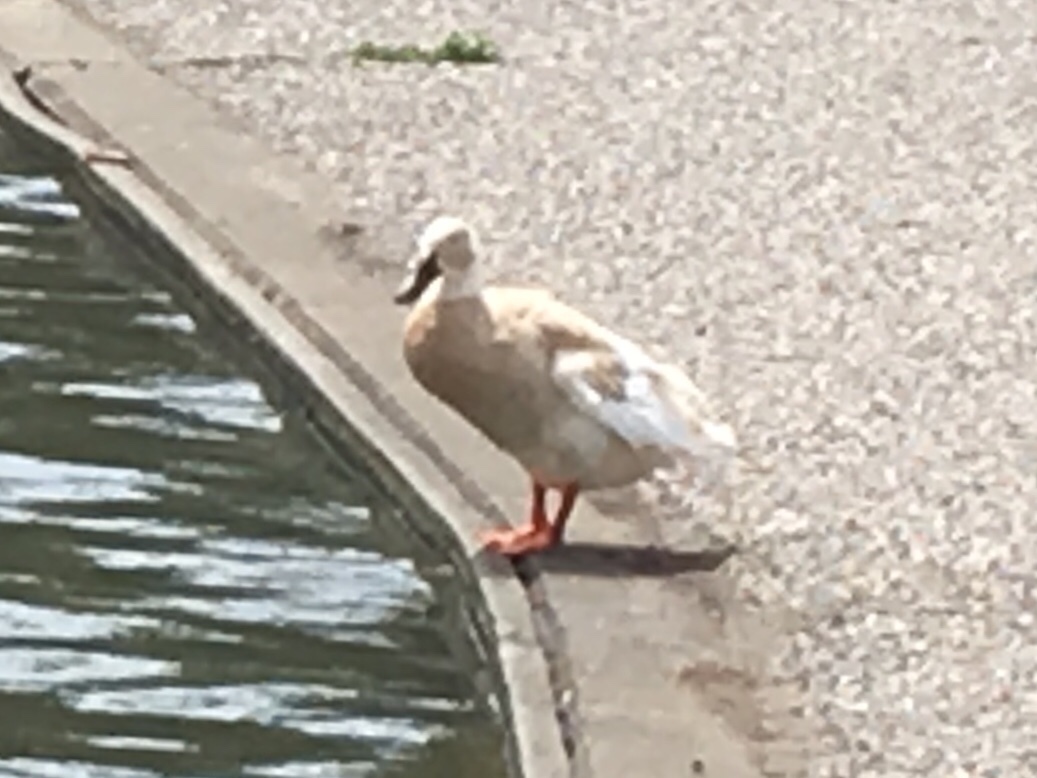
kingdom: Animalia
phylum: Chordata
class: Aves
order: Anseriformes
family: Anatidae
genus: Anas
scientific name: Anas platyrhynchos
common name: Mallard
